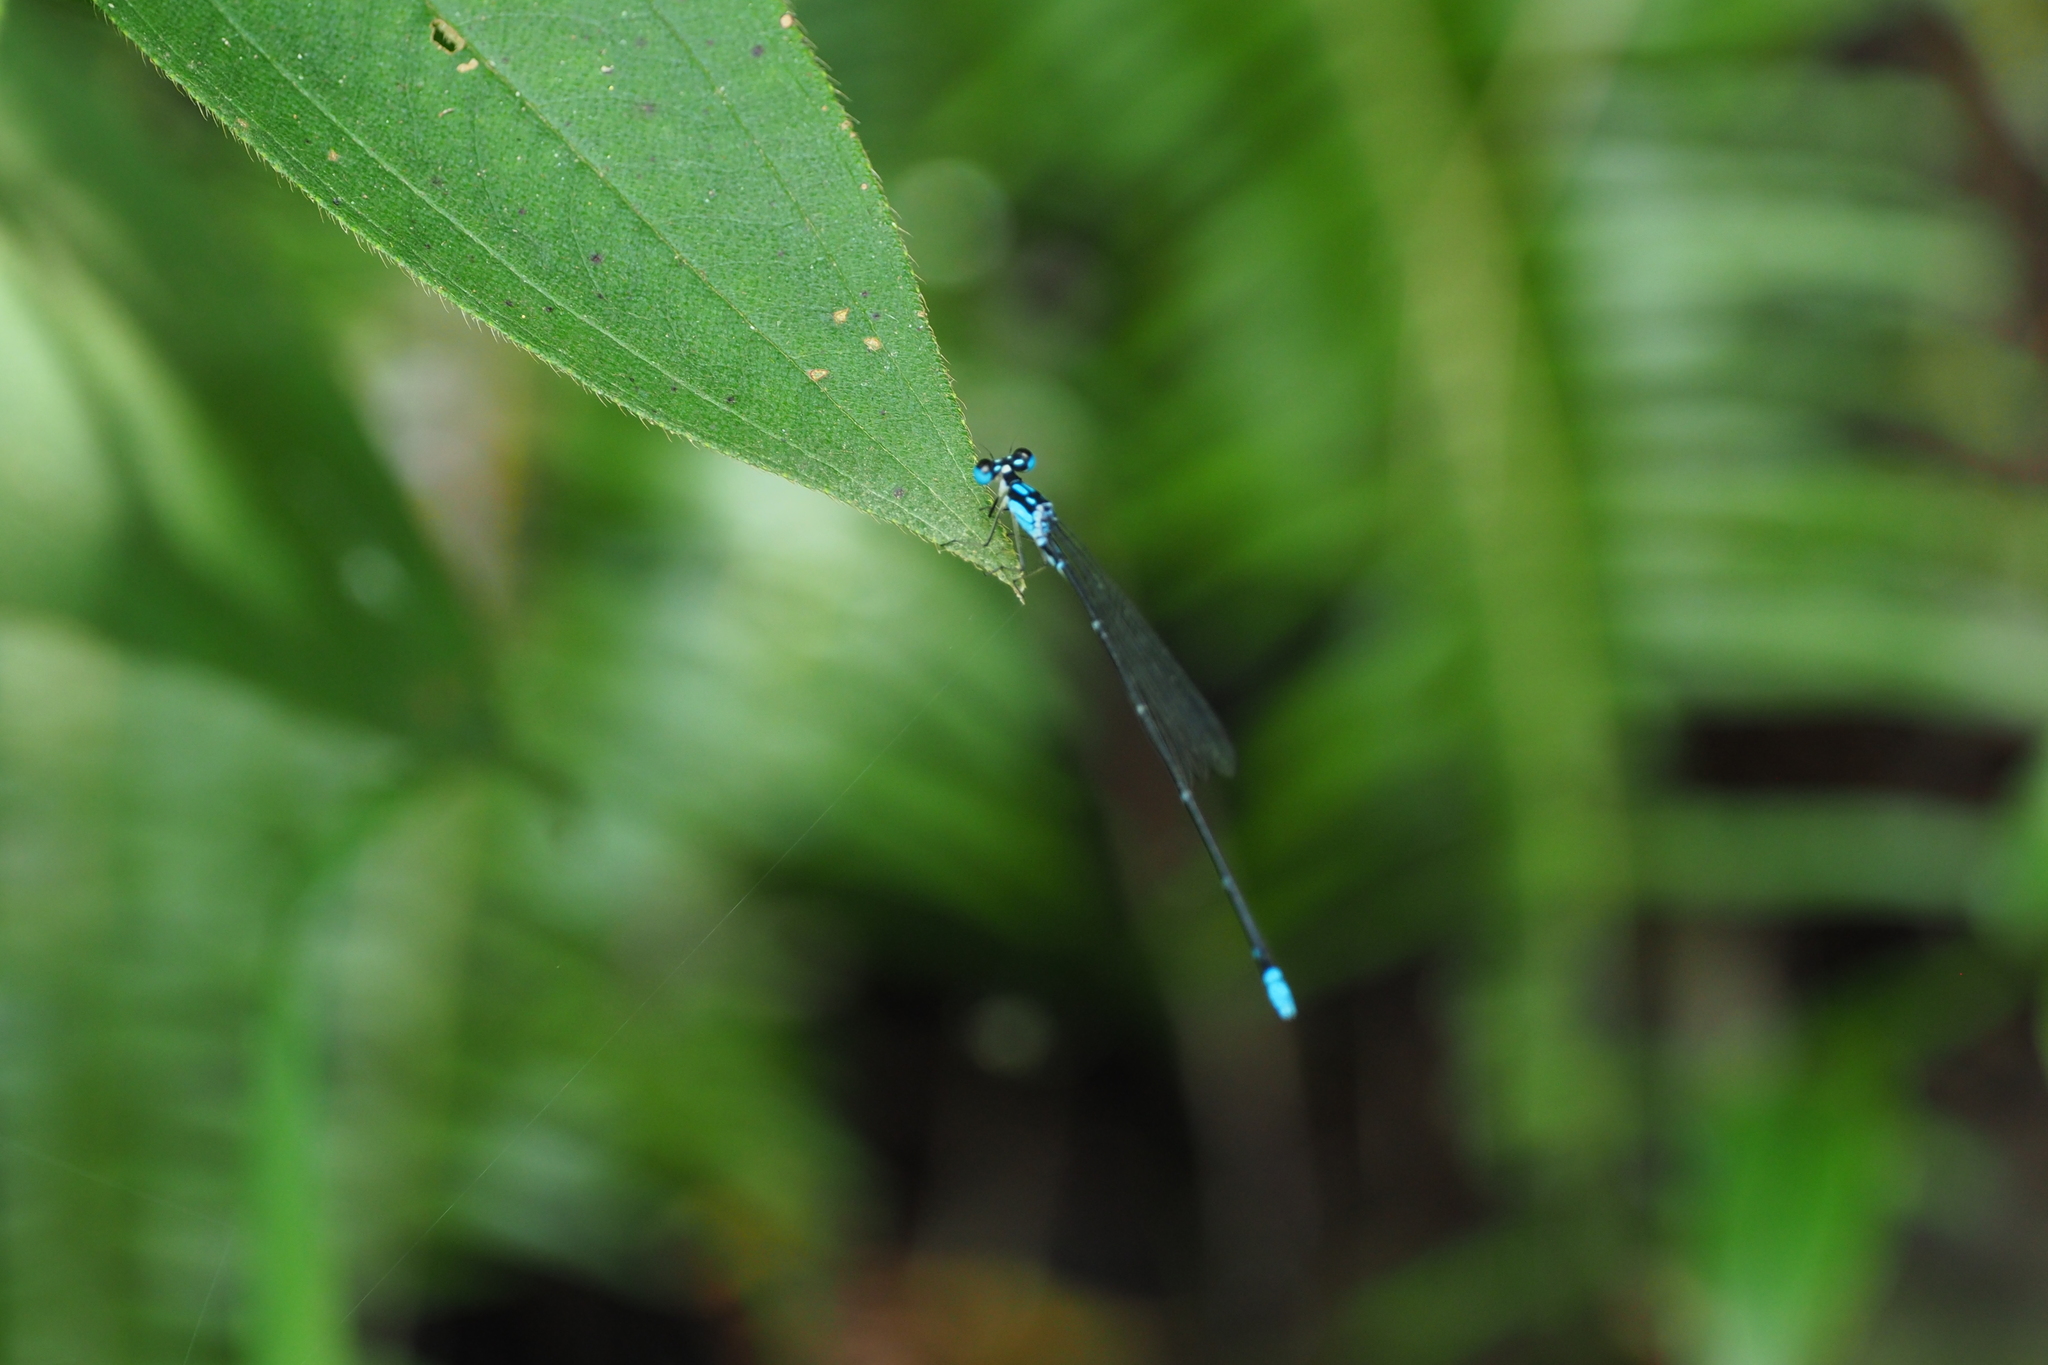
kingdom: Animalia
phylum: Arthropoda
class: Insecta
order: Odonata
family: Platycnemididae
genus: Coeliccia
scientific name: Coeliccia cyanomelas
